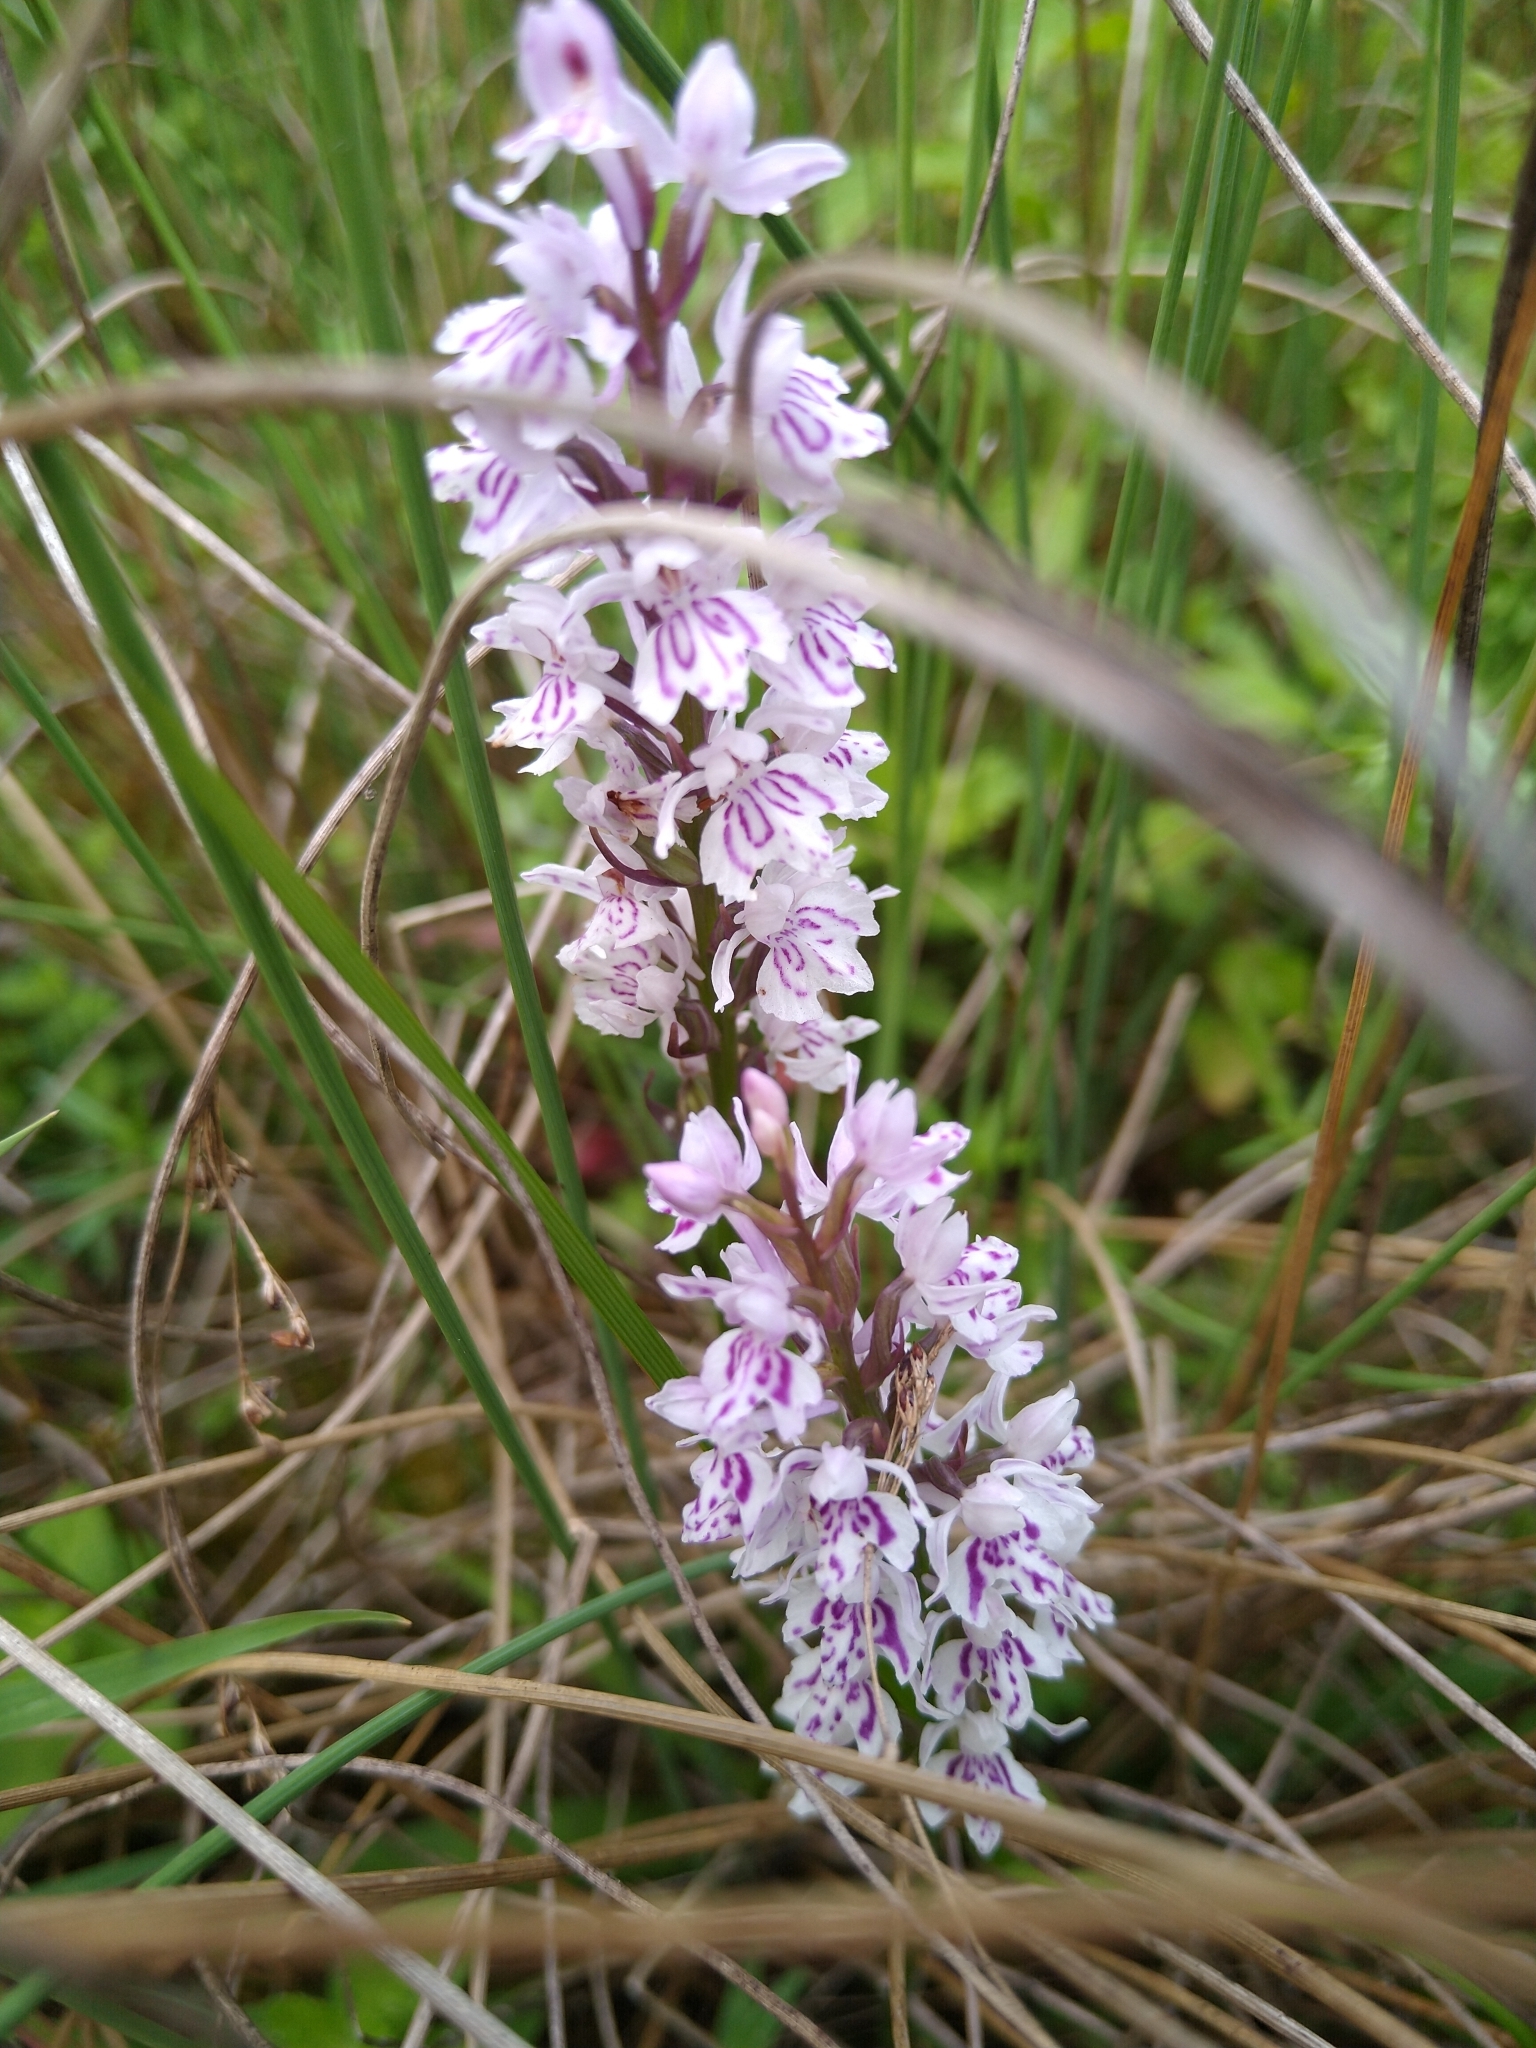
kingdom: Plantae
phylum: Tracheophyta
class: Liliopsida
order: Asparagales
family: Orchidaceae
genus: Dactylorhiza
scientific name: Dactylorhiza maculata
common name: Heath spotted-orchid
